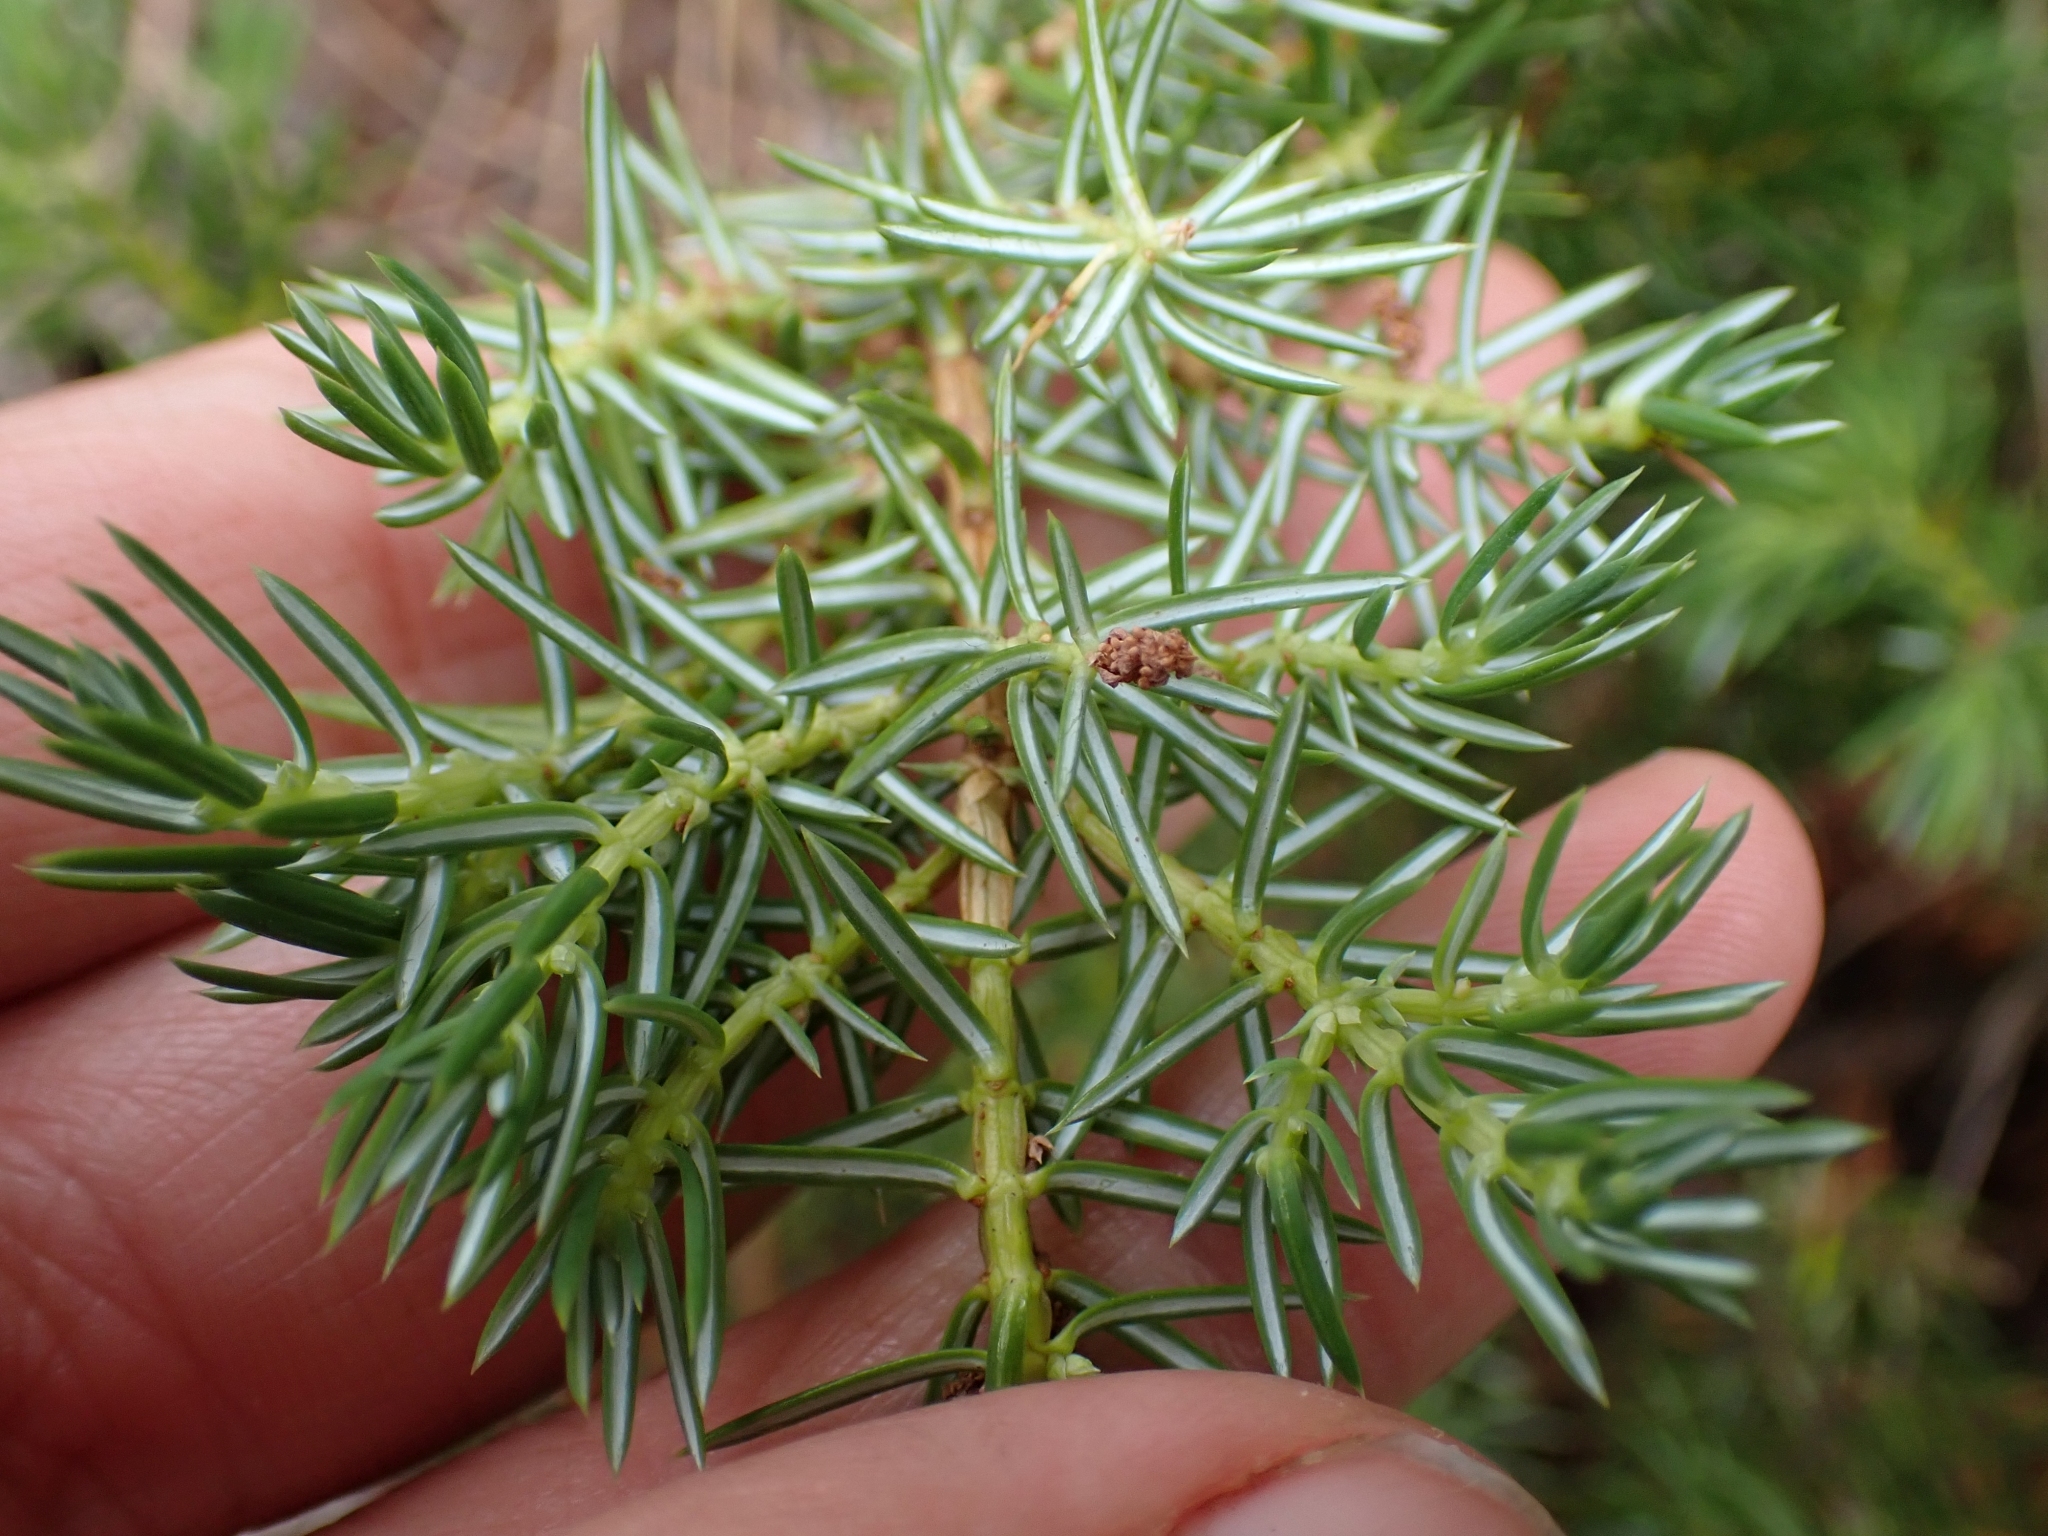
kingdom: Plantae
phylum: Tracheophyta
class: Pinopsida
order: Pinales
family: Cupressaceae
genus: Juniperus
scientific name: Juniperus communis
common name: Common juniper
